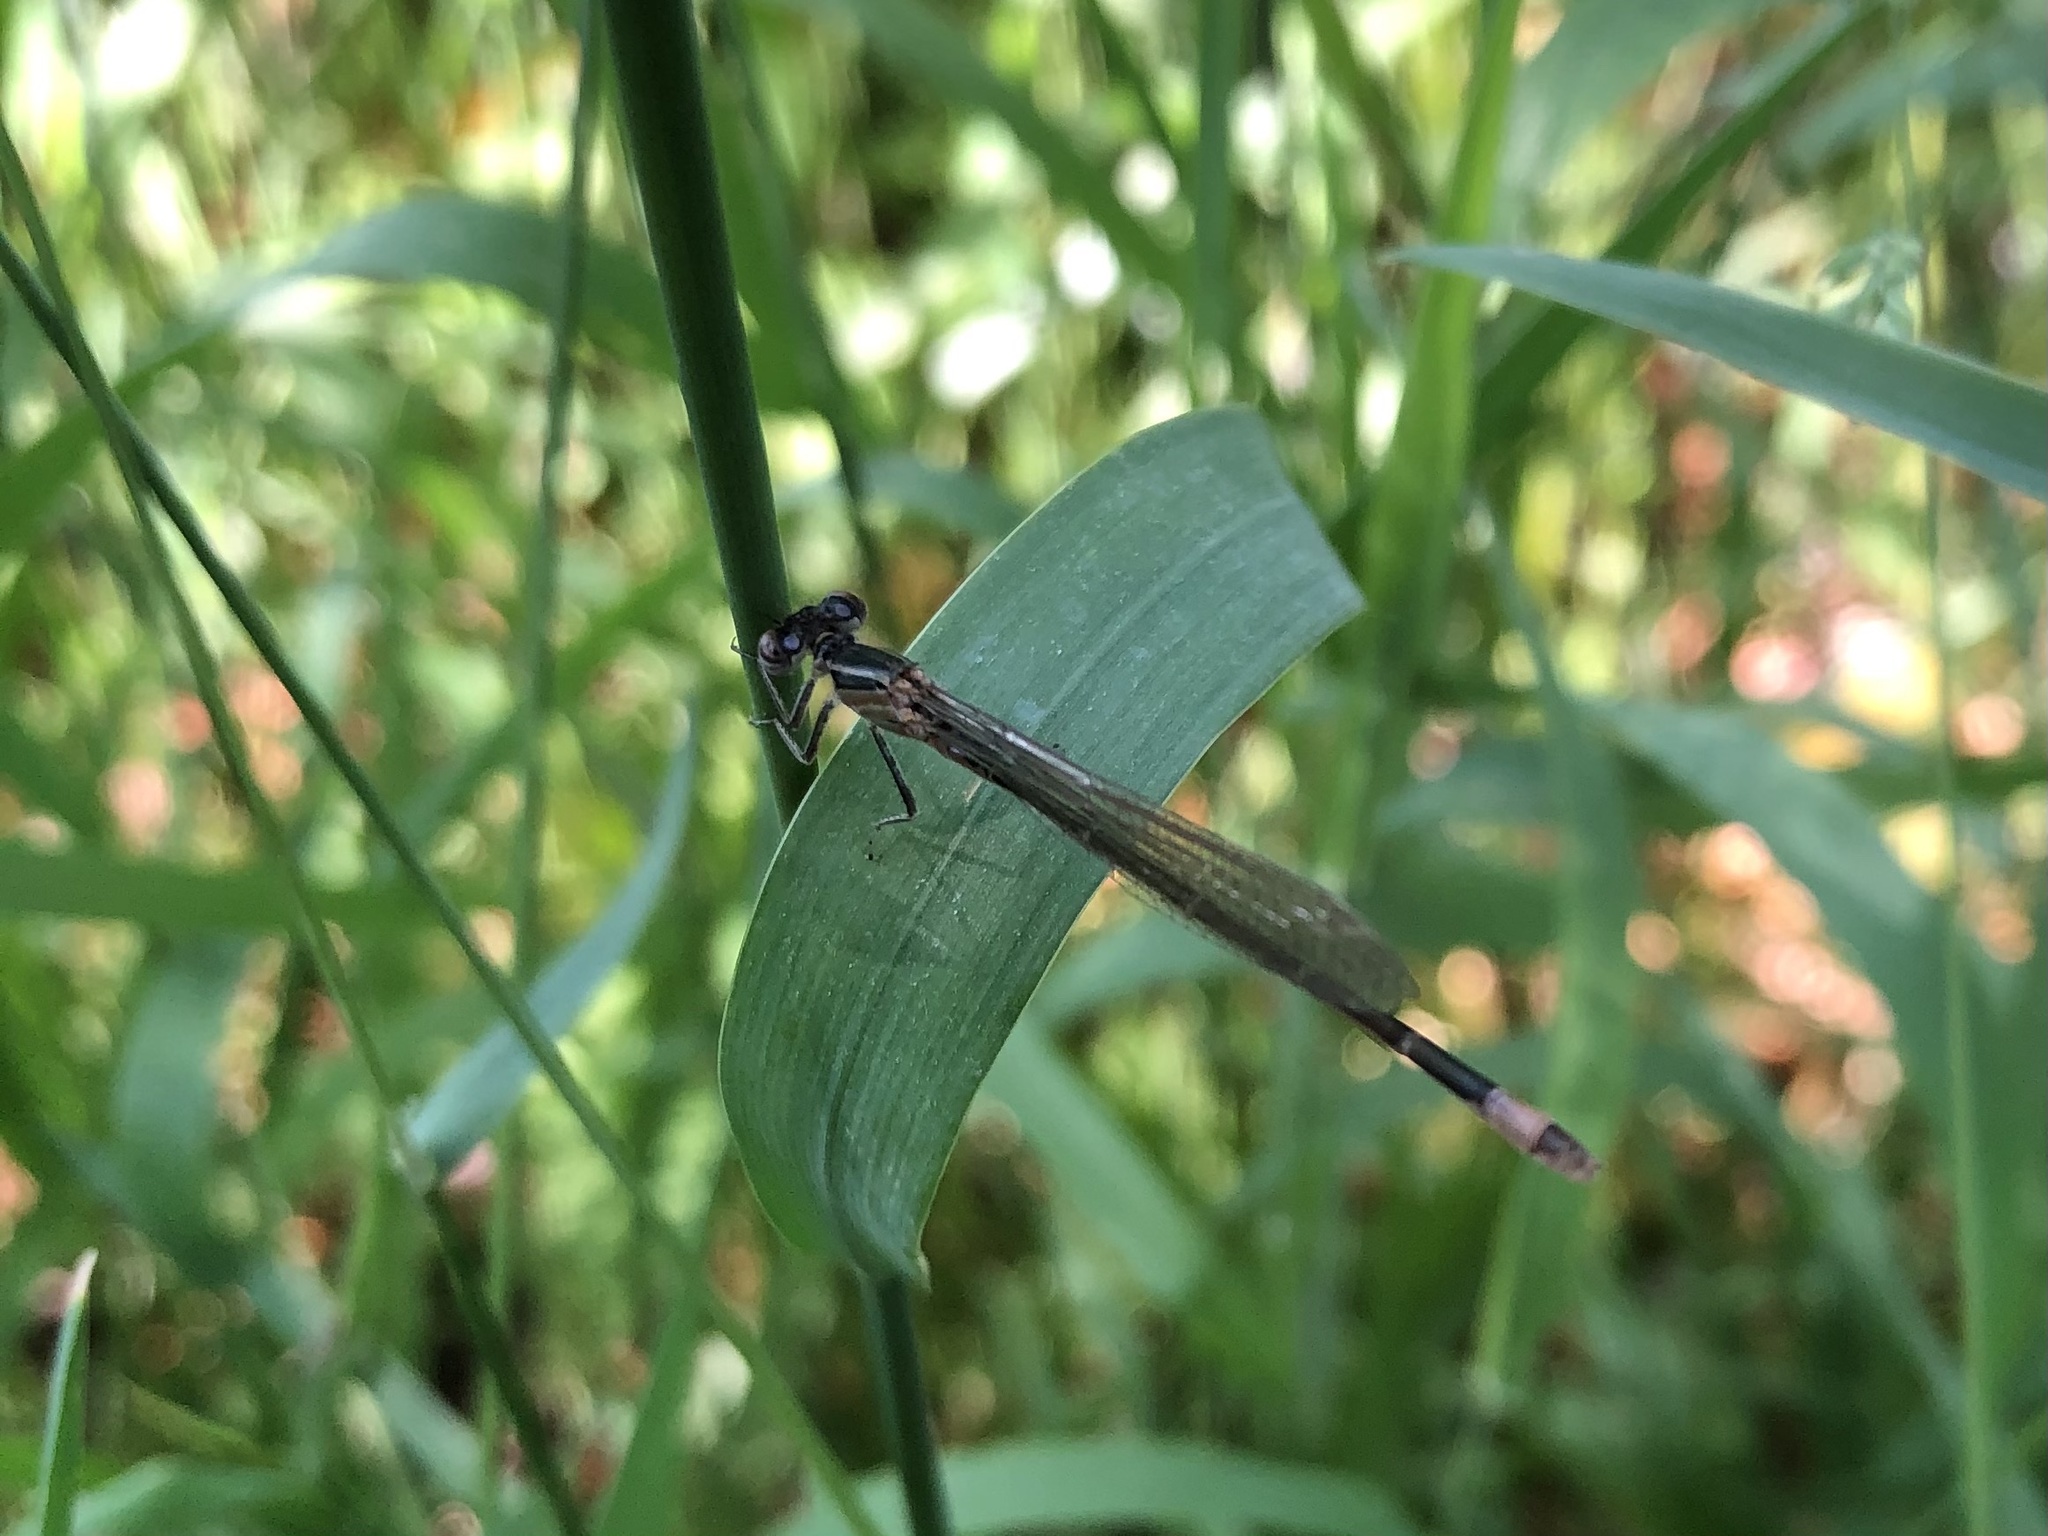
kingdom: Animalia
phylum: Arthropoda
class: Insecta
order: Odonata
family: Coenagrionidae
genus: Ischnura
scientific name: Ischnura elegans
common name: Blue-tailed damselfly
